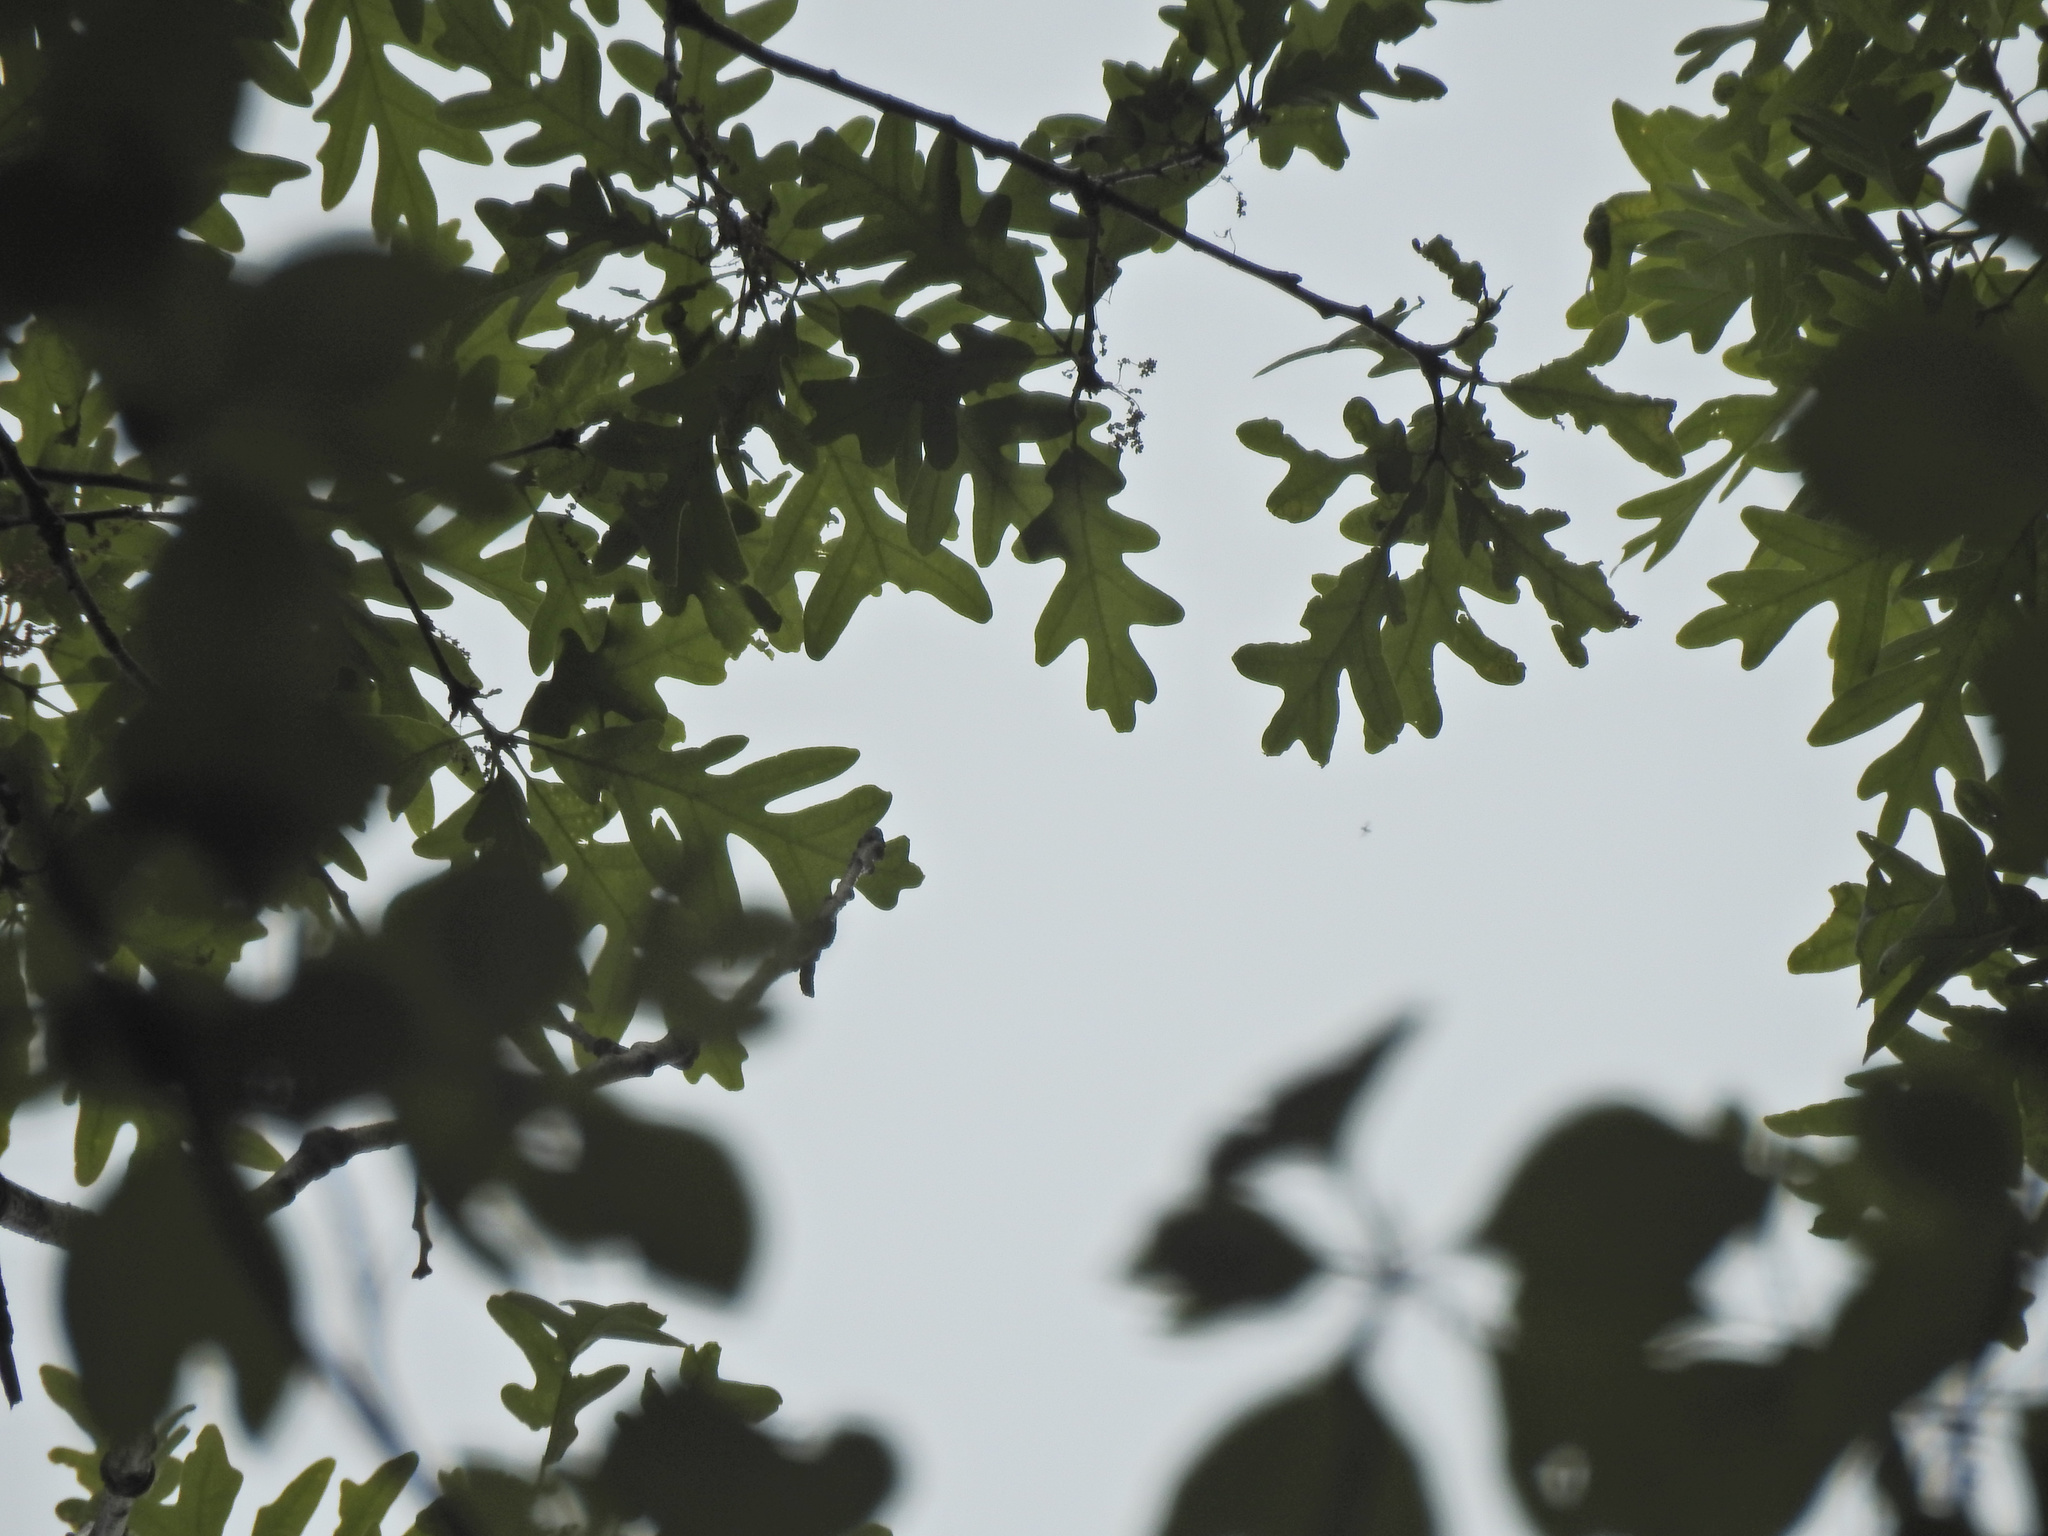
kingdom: Plantae
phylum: Tracheophyta
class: Magnoliopsida
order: Fagales
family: Fagaceae
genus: Quercus
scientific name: Quercus alba
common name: White oak
